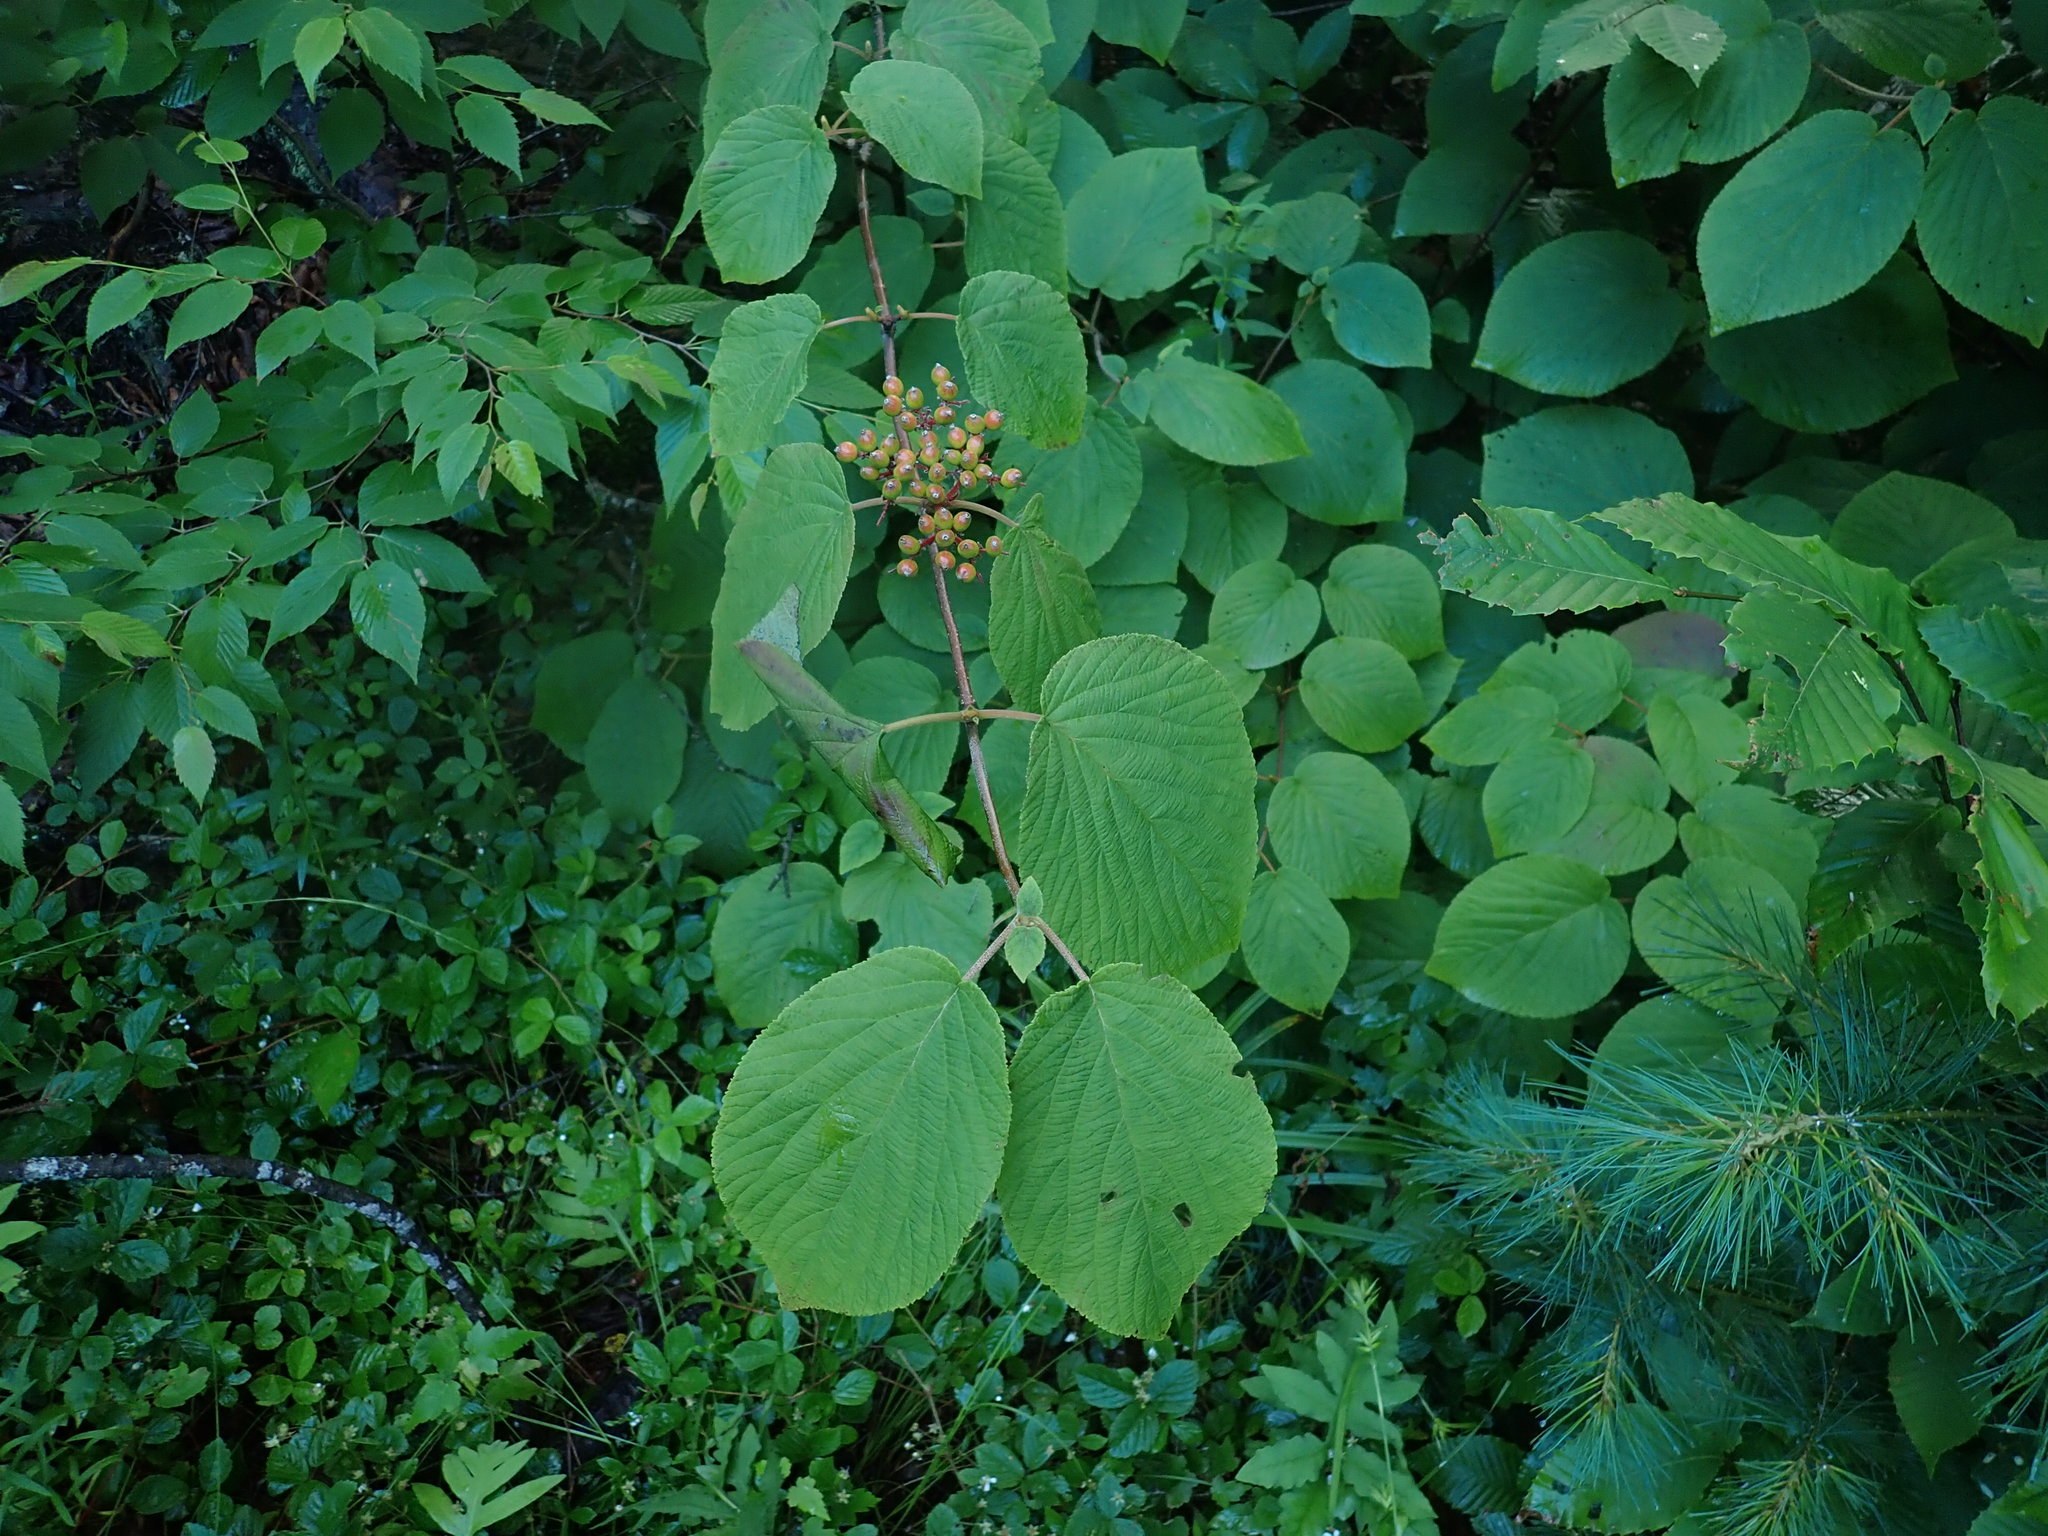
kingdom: Plantae
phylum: Tracheophyta
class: Magnoliopsida
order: Dipsacales
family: Viburnaceae
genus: Viburnum
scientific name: Viburnum lantanoides
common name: Hobblebush
